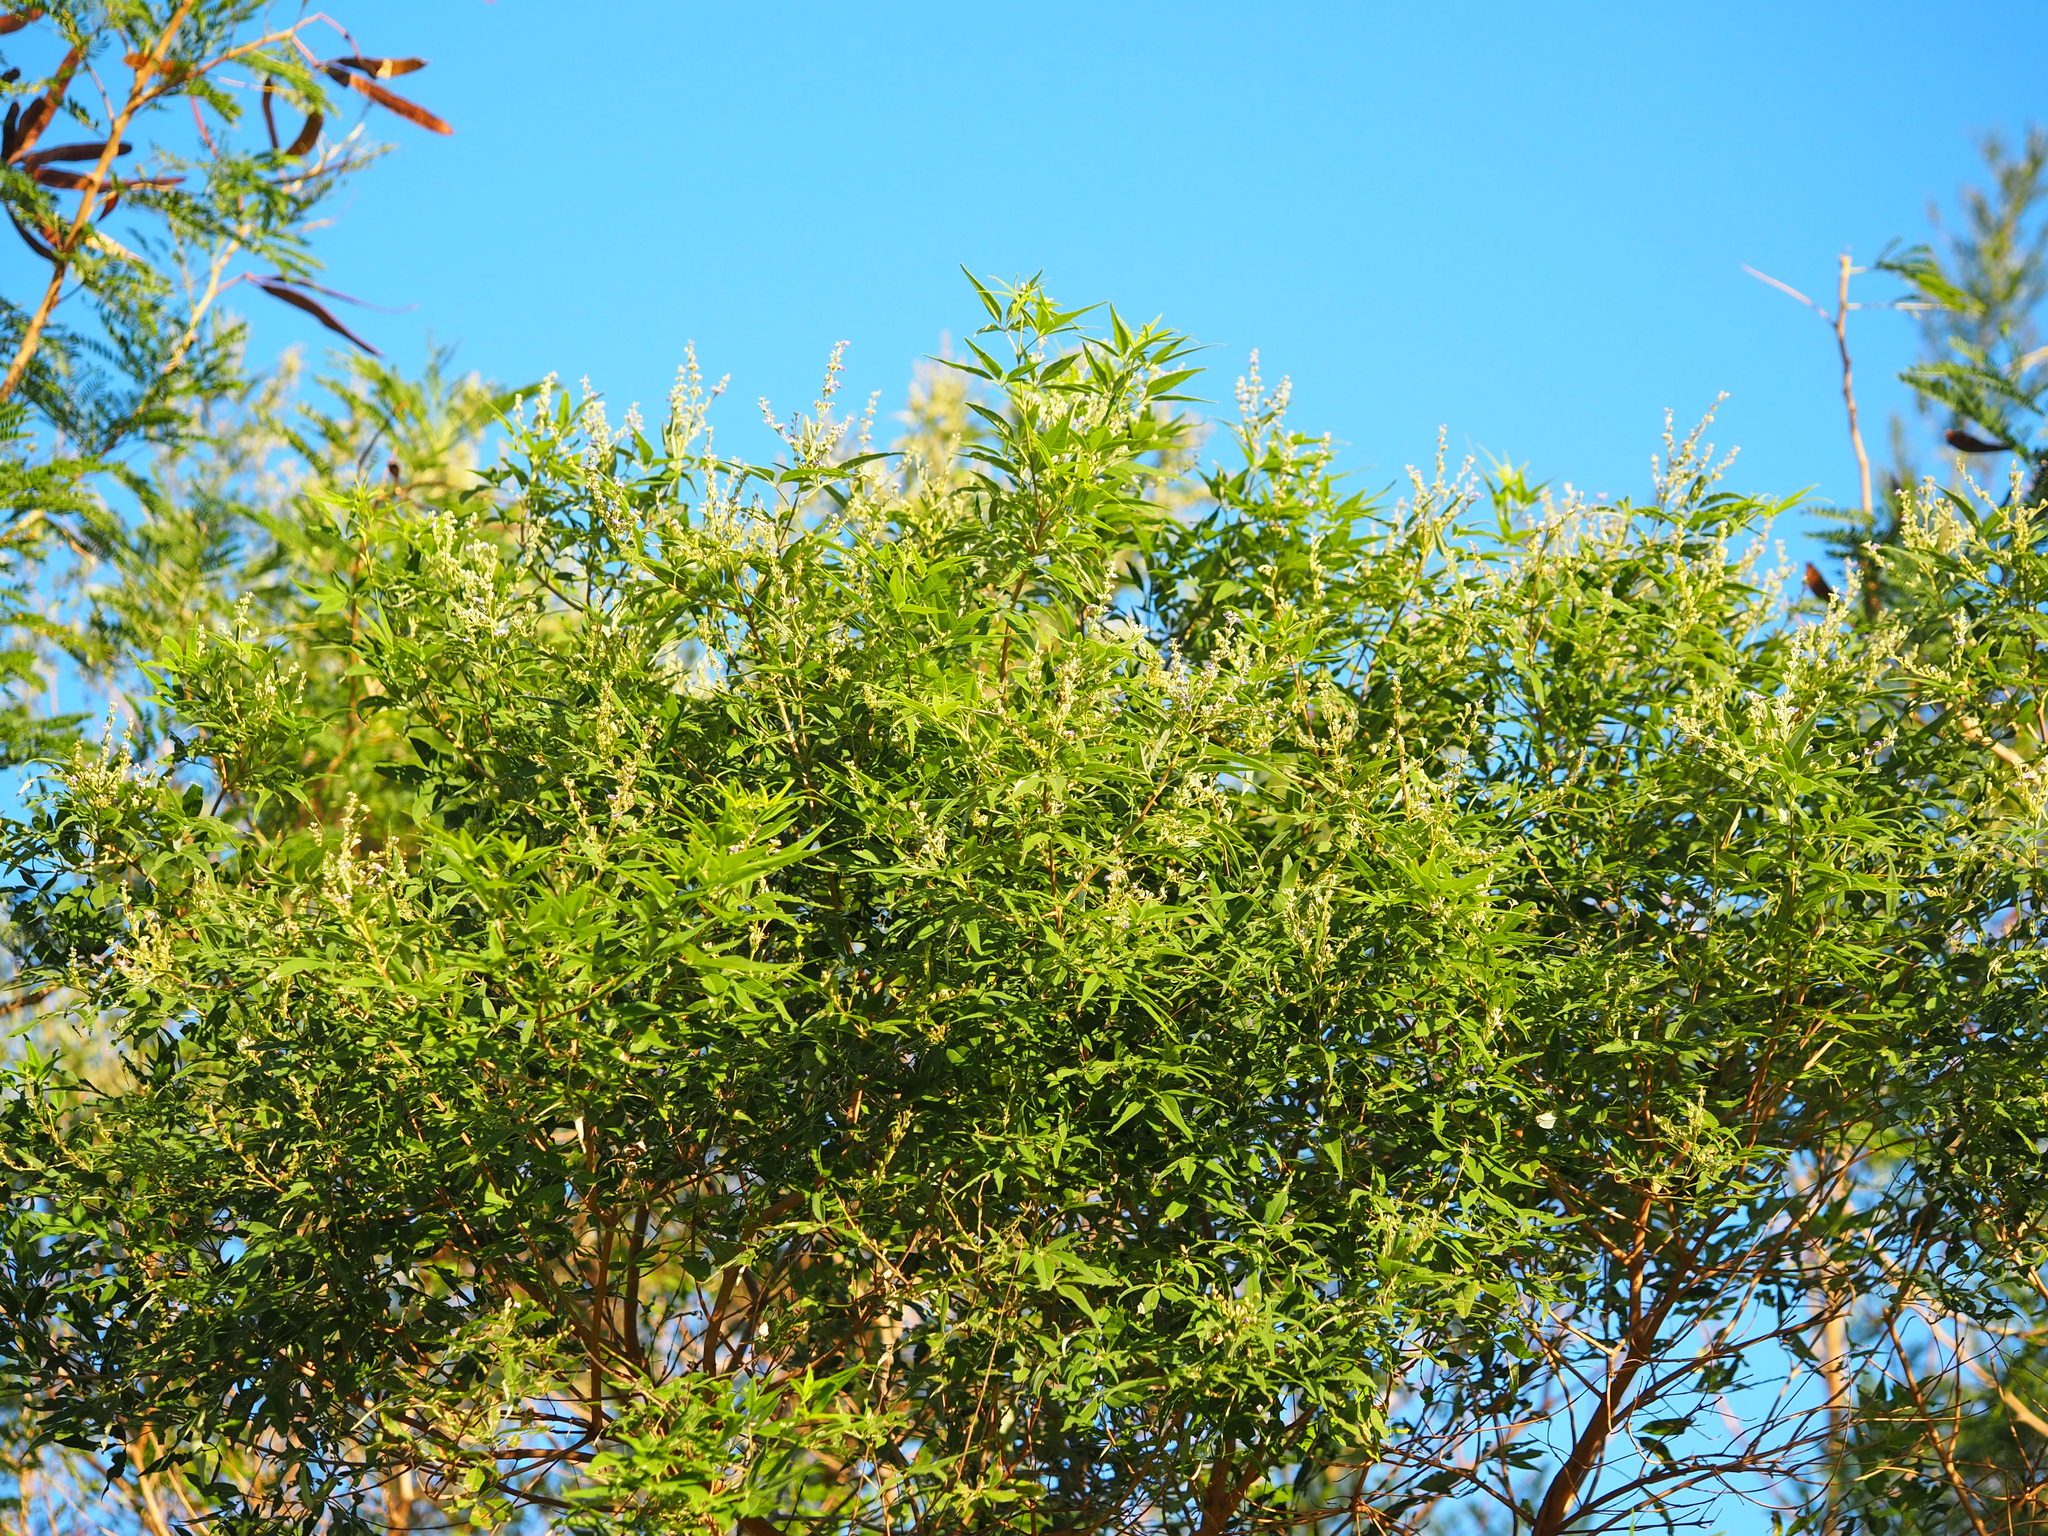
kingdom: Plantae
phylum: Tracheophyta
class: Magnoliopsida
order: Lamiales
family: Lamiaceae
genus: Vitex
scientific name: Vitex negundo
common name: Chinese chastetree
